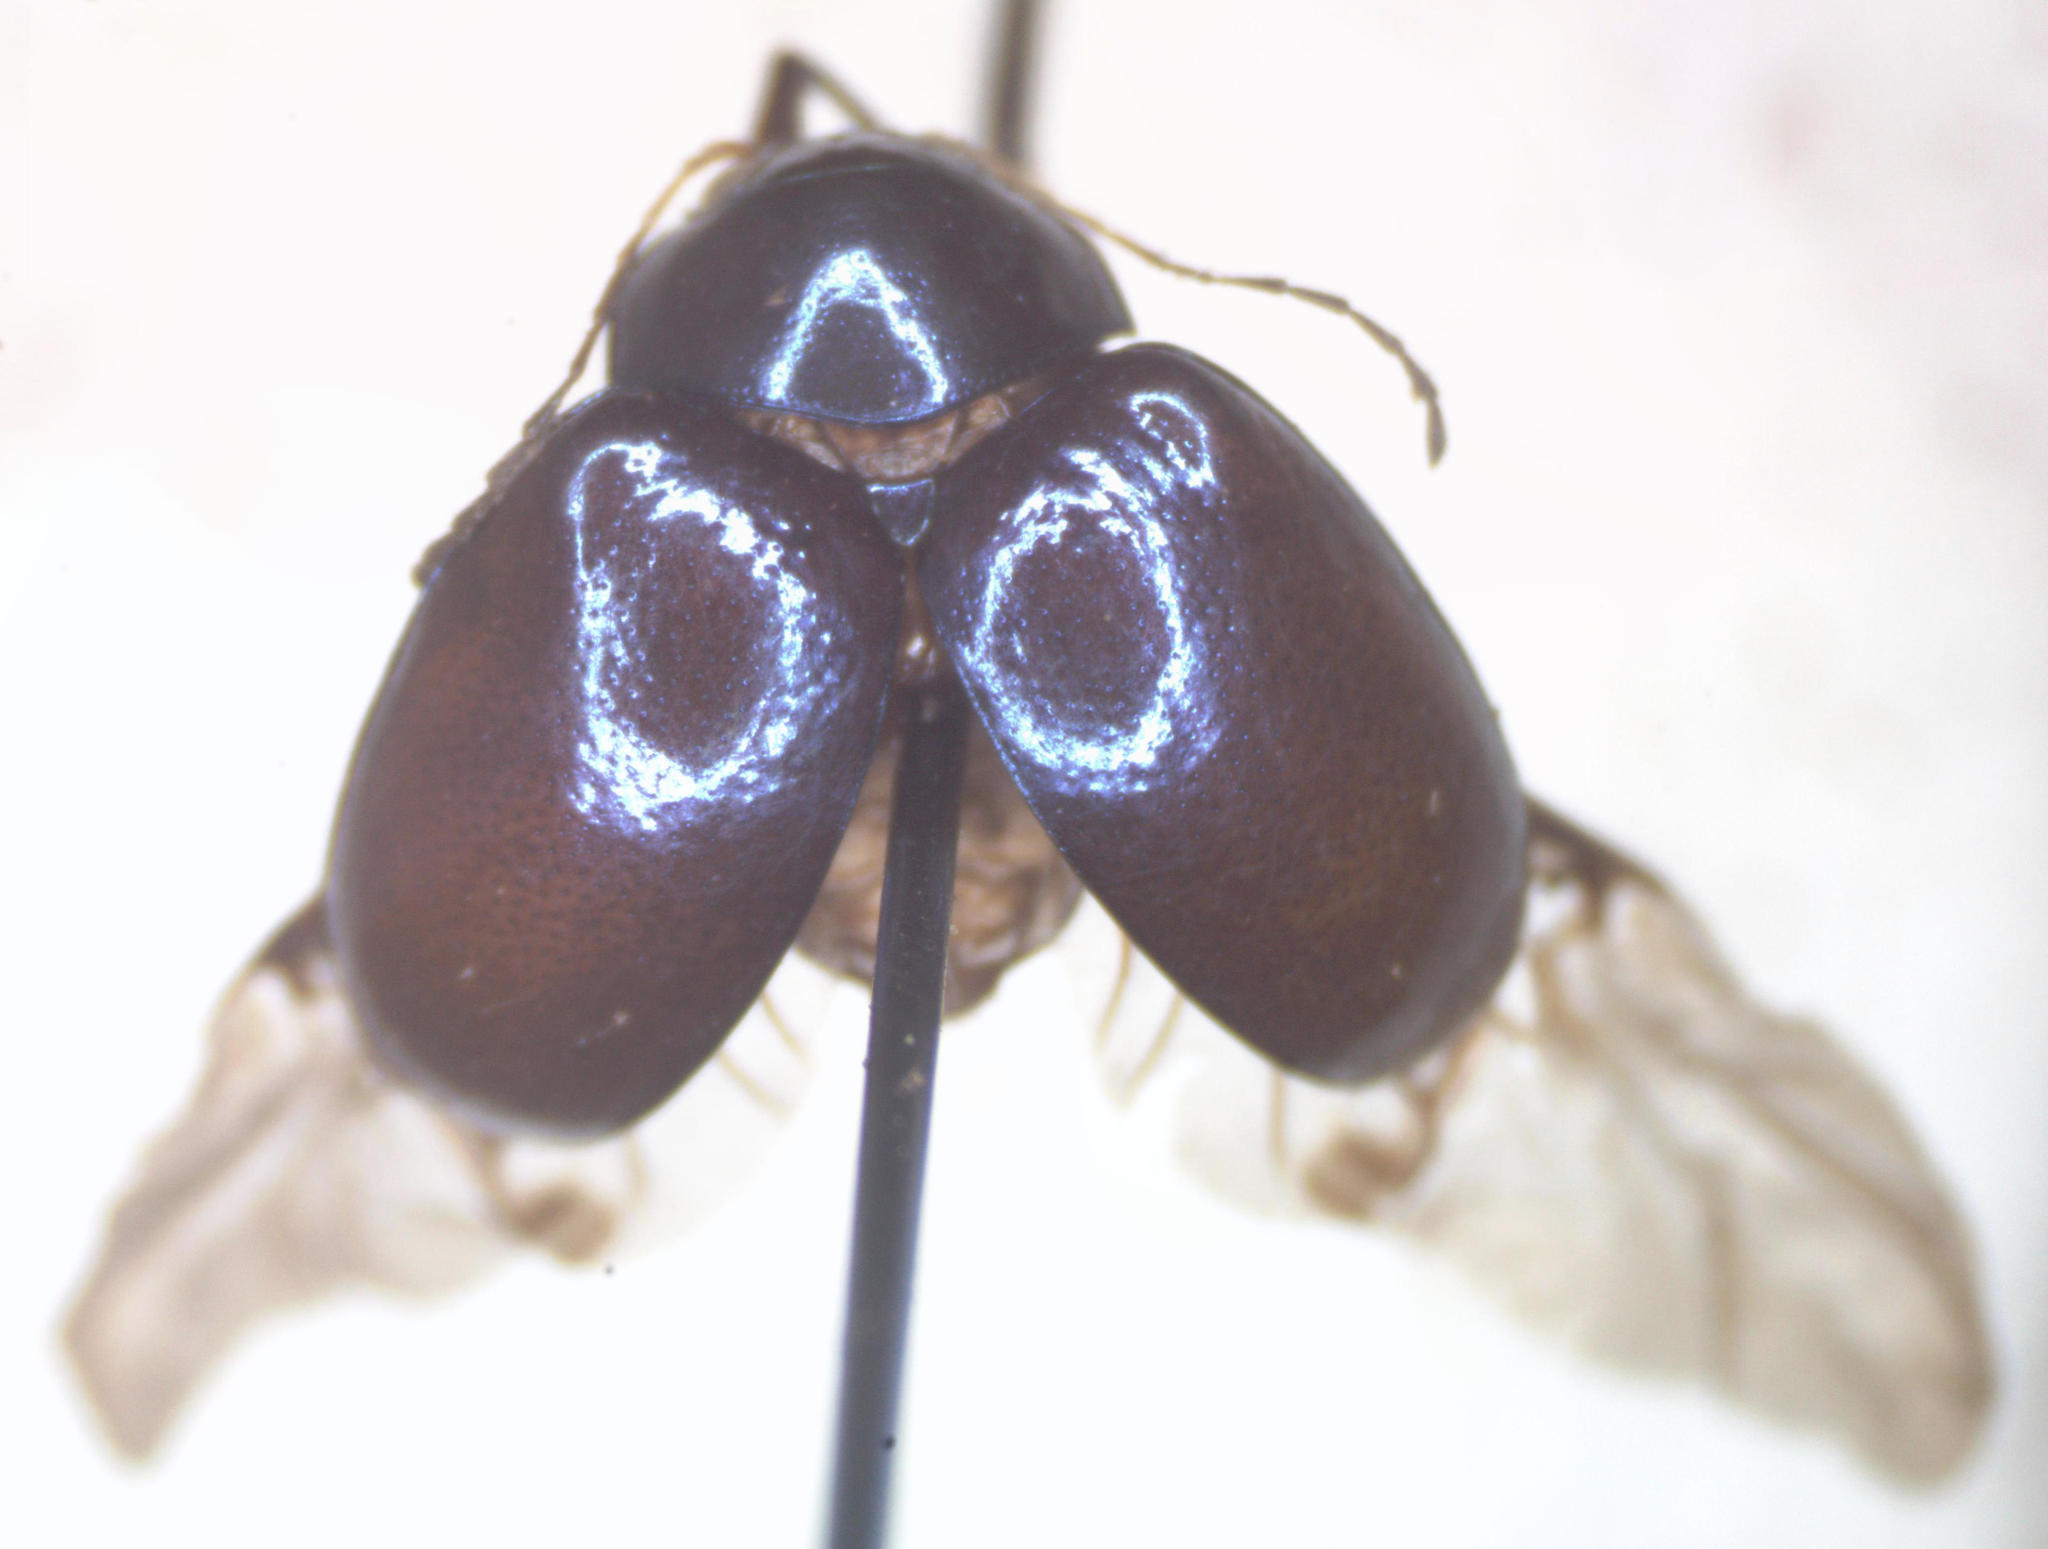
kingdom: Animalia
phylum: Arthropoda
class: Insecta
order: Coleoptera
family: Chrysomelidae
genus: Colaspoides
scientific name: Colaspoides
